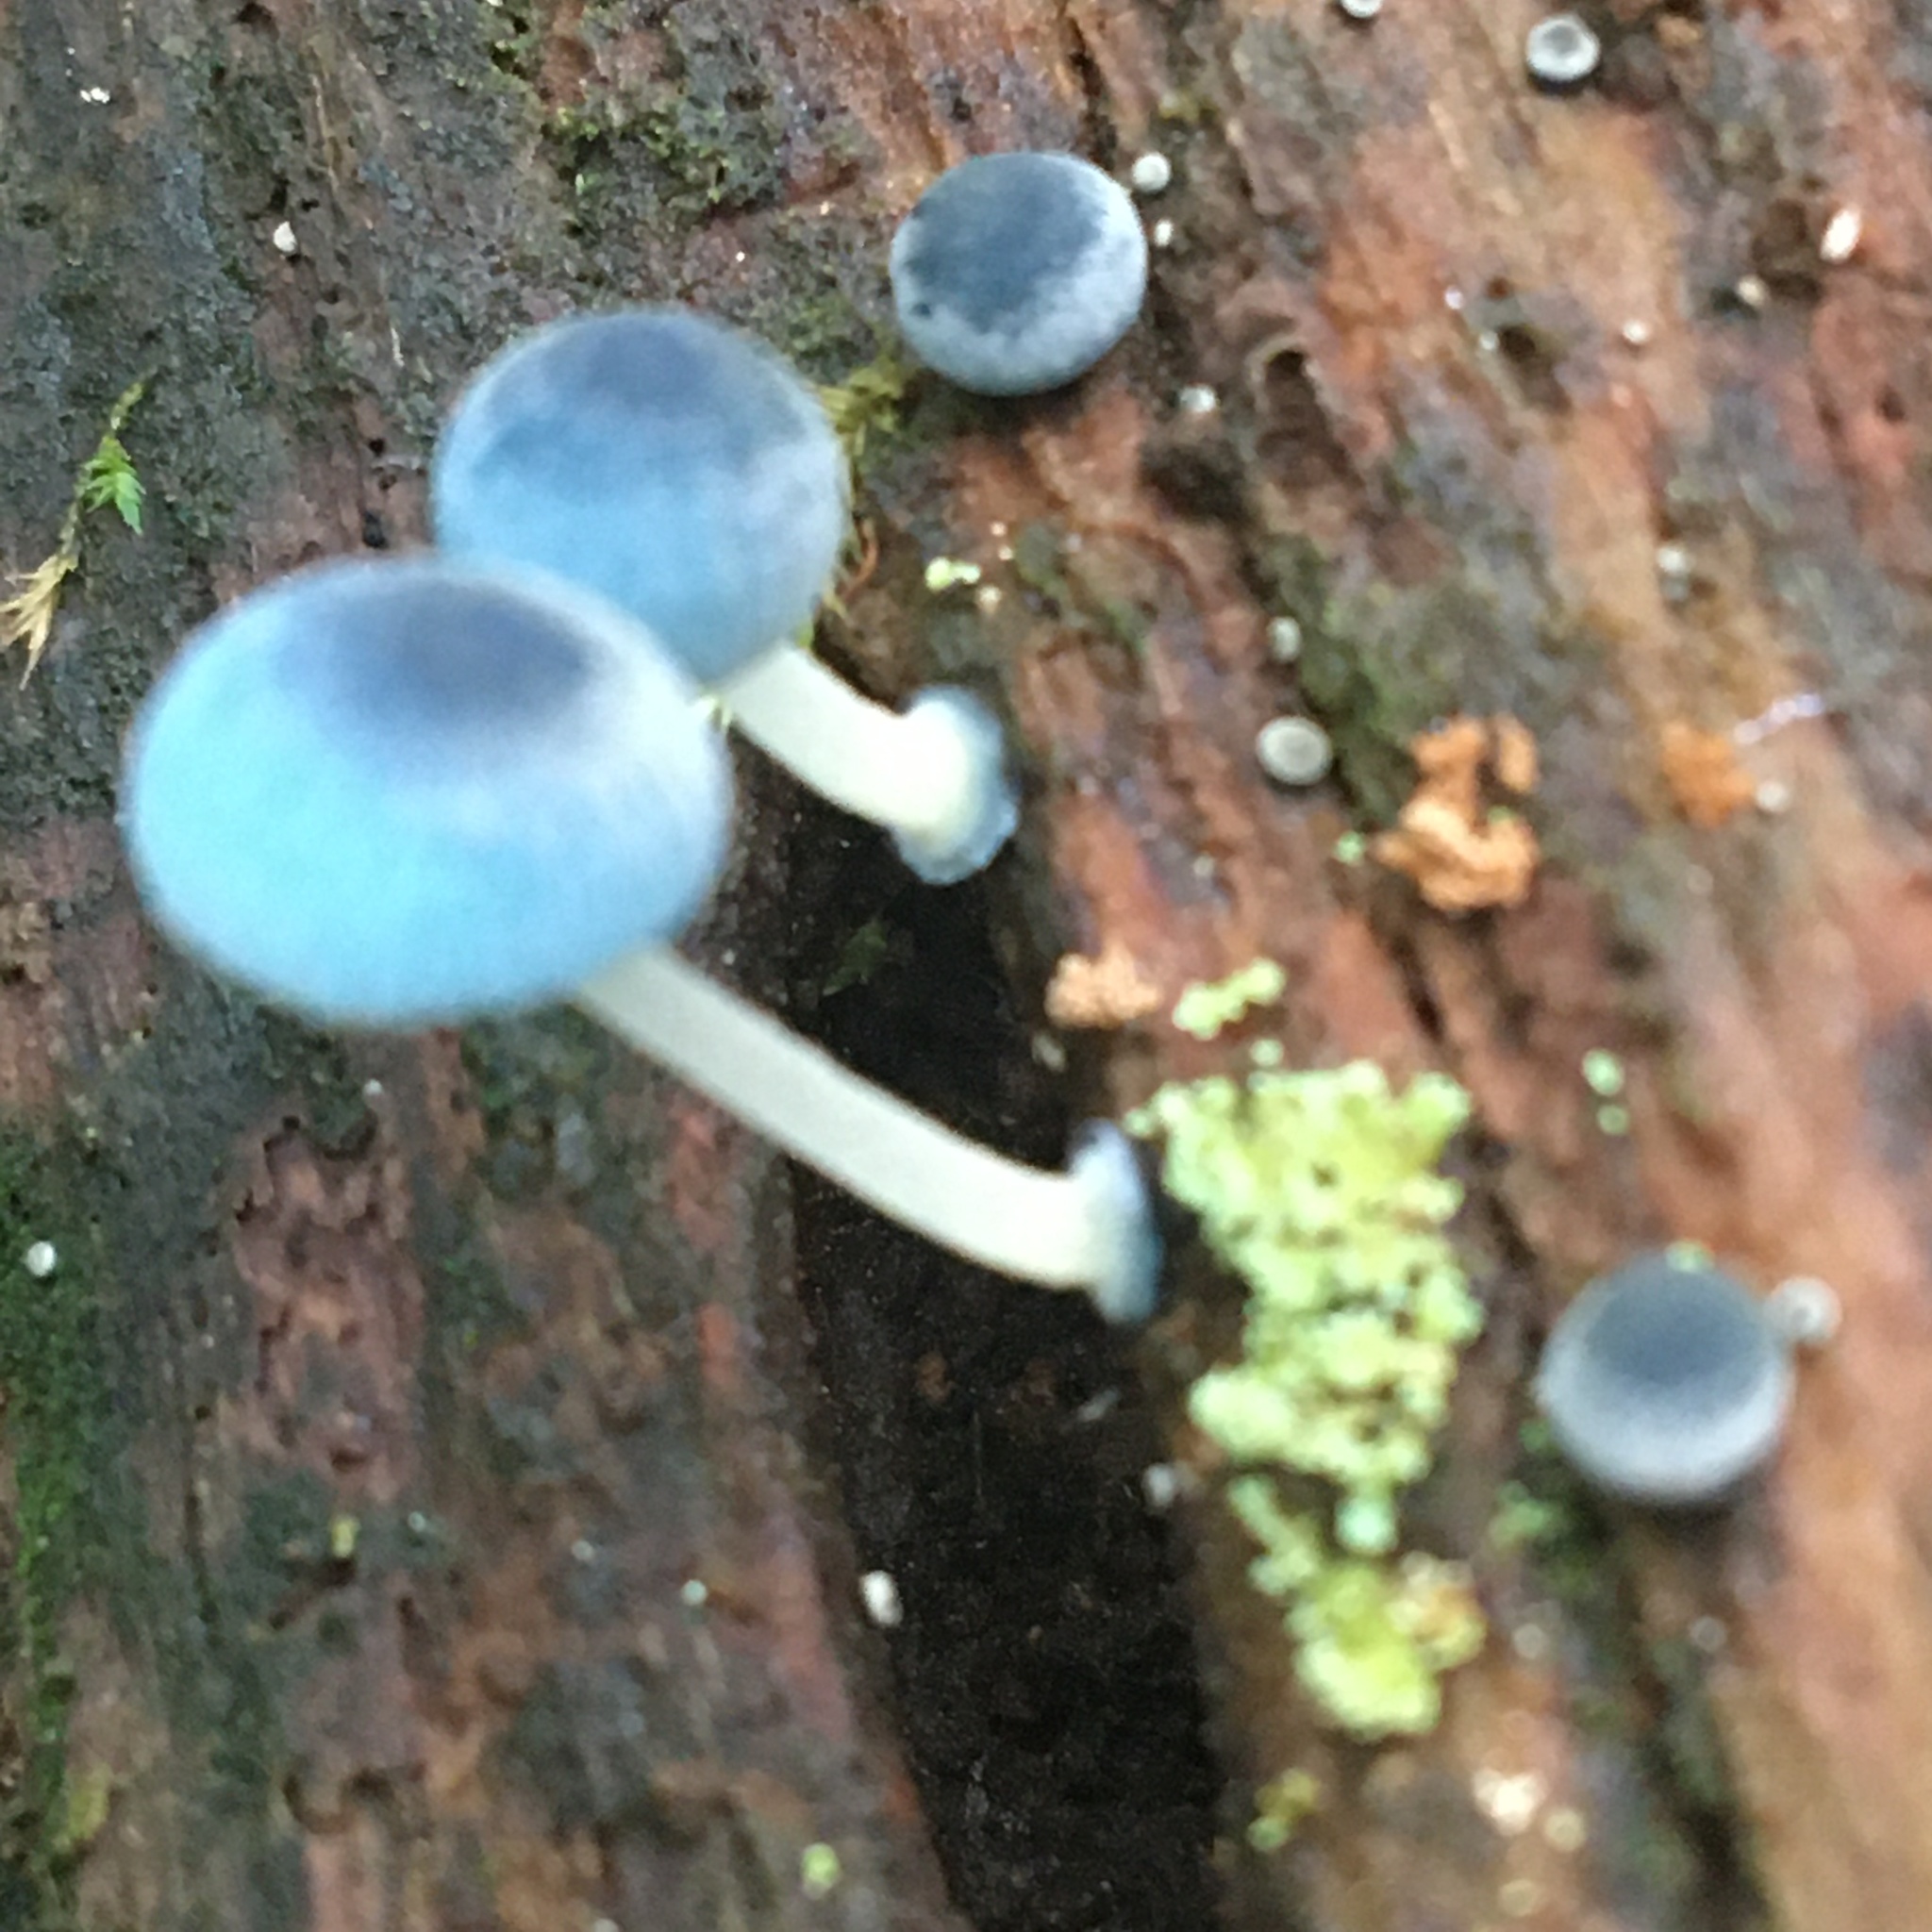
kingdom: Fungi
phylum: Basidiomycota
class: Agaricomycetes
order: Agaricales
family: Mycenaceae
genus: Mycena
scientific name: Mycena interrupta
